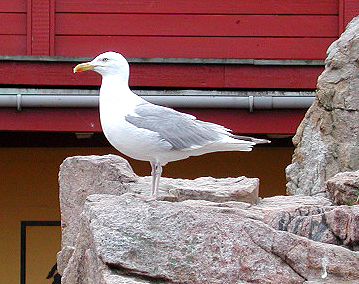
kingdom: Animalia
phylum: Chordata
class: Aves
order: Charadriiformes
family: Laridae
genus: Larus
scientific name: Larus argentatus
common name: Herring gull
